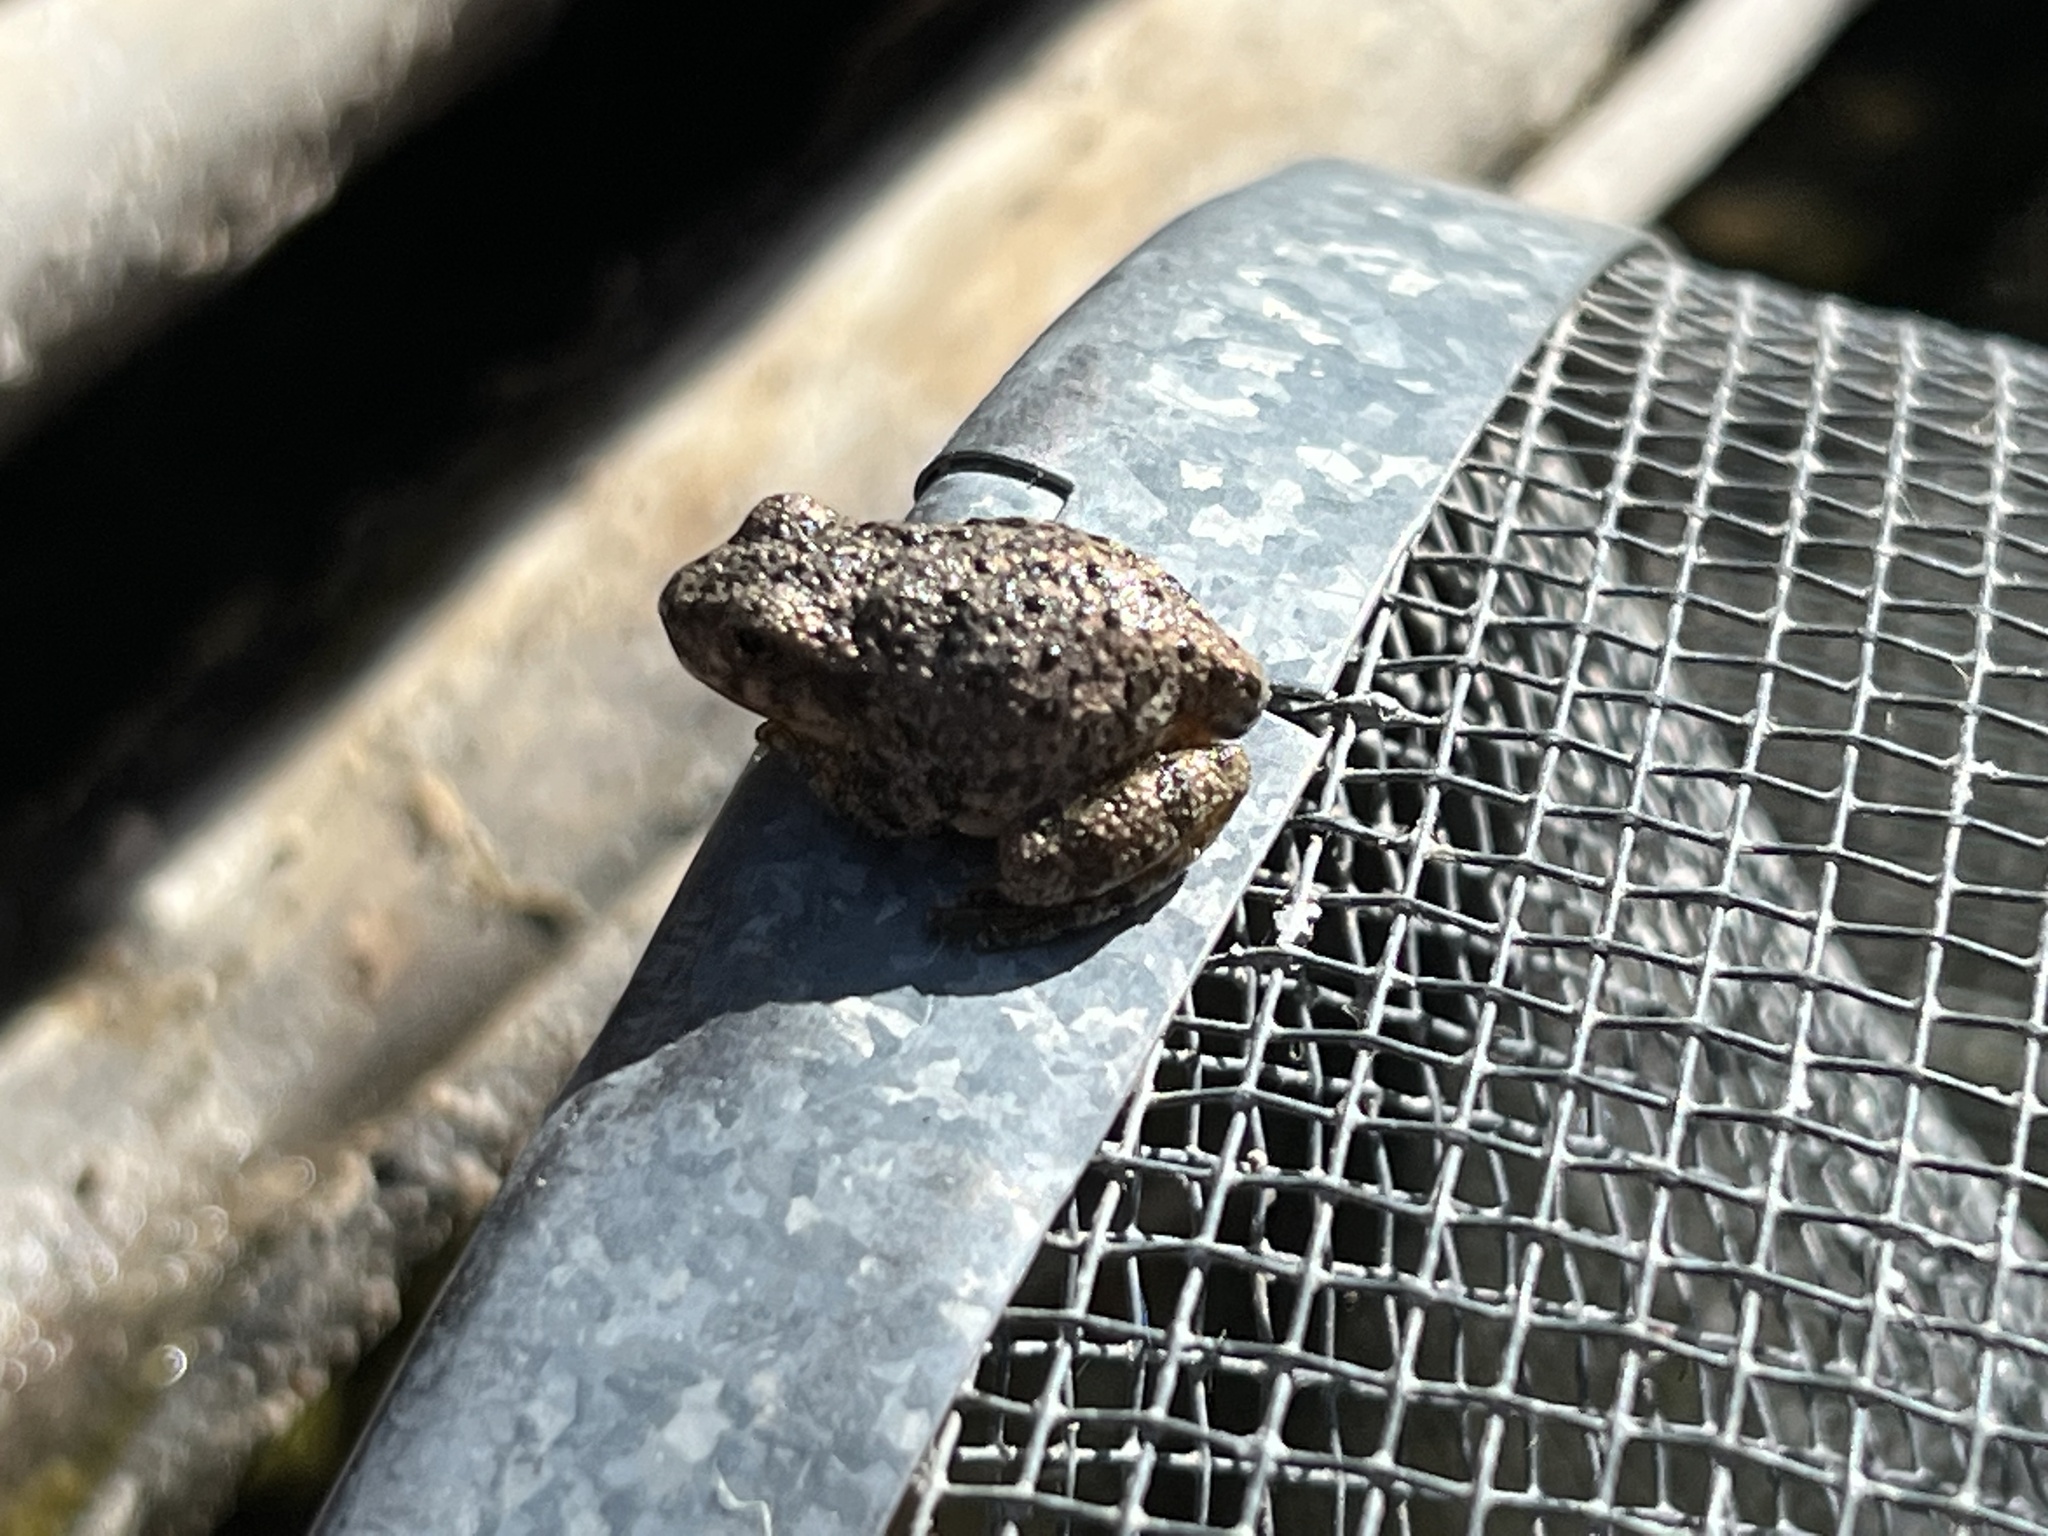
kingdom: Animalia
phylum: Chordata
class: Amphibia
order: Anura
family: Hylidae
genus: Dryophytes
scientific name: Dryophytes arenicolor
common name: Canyon treefrog
